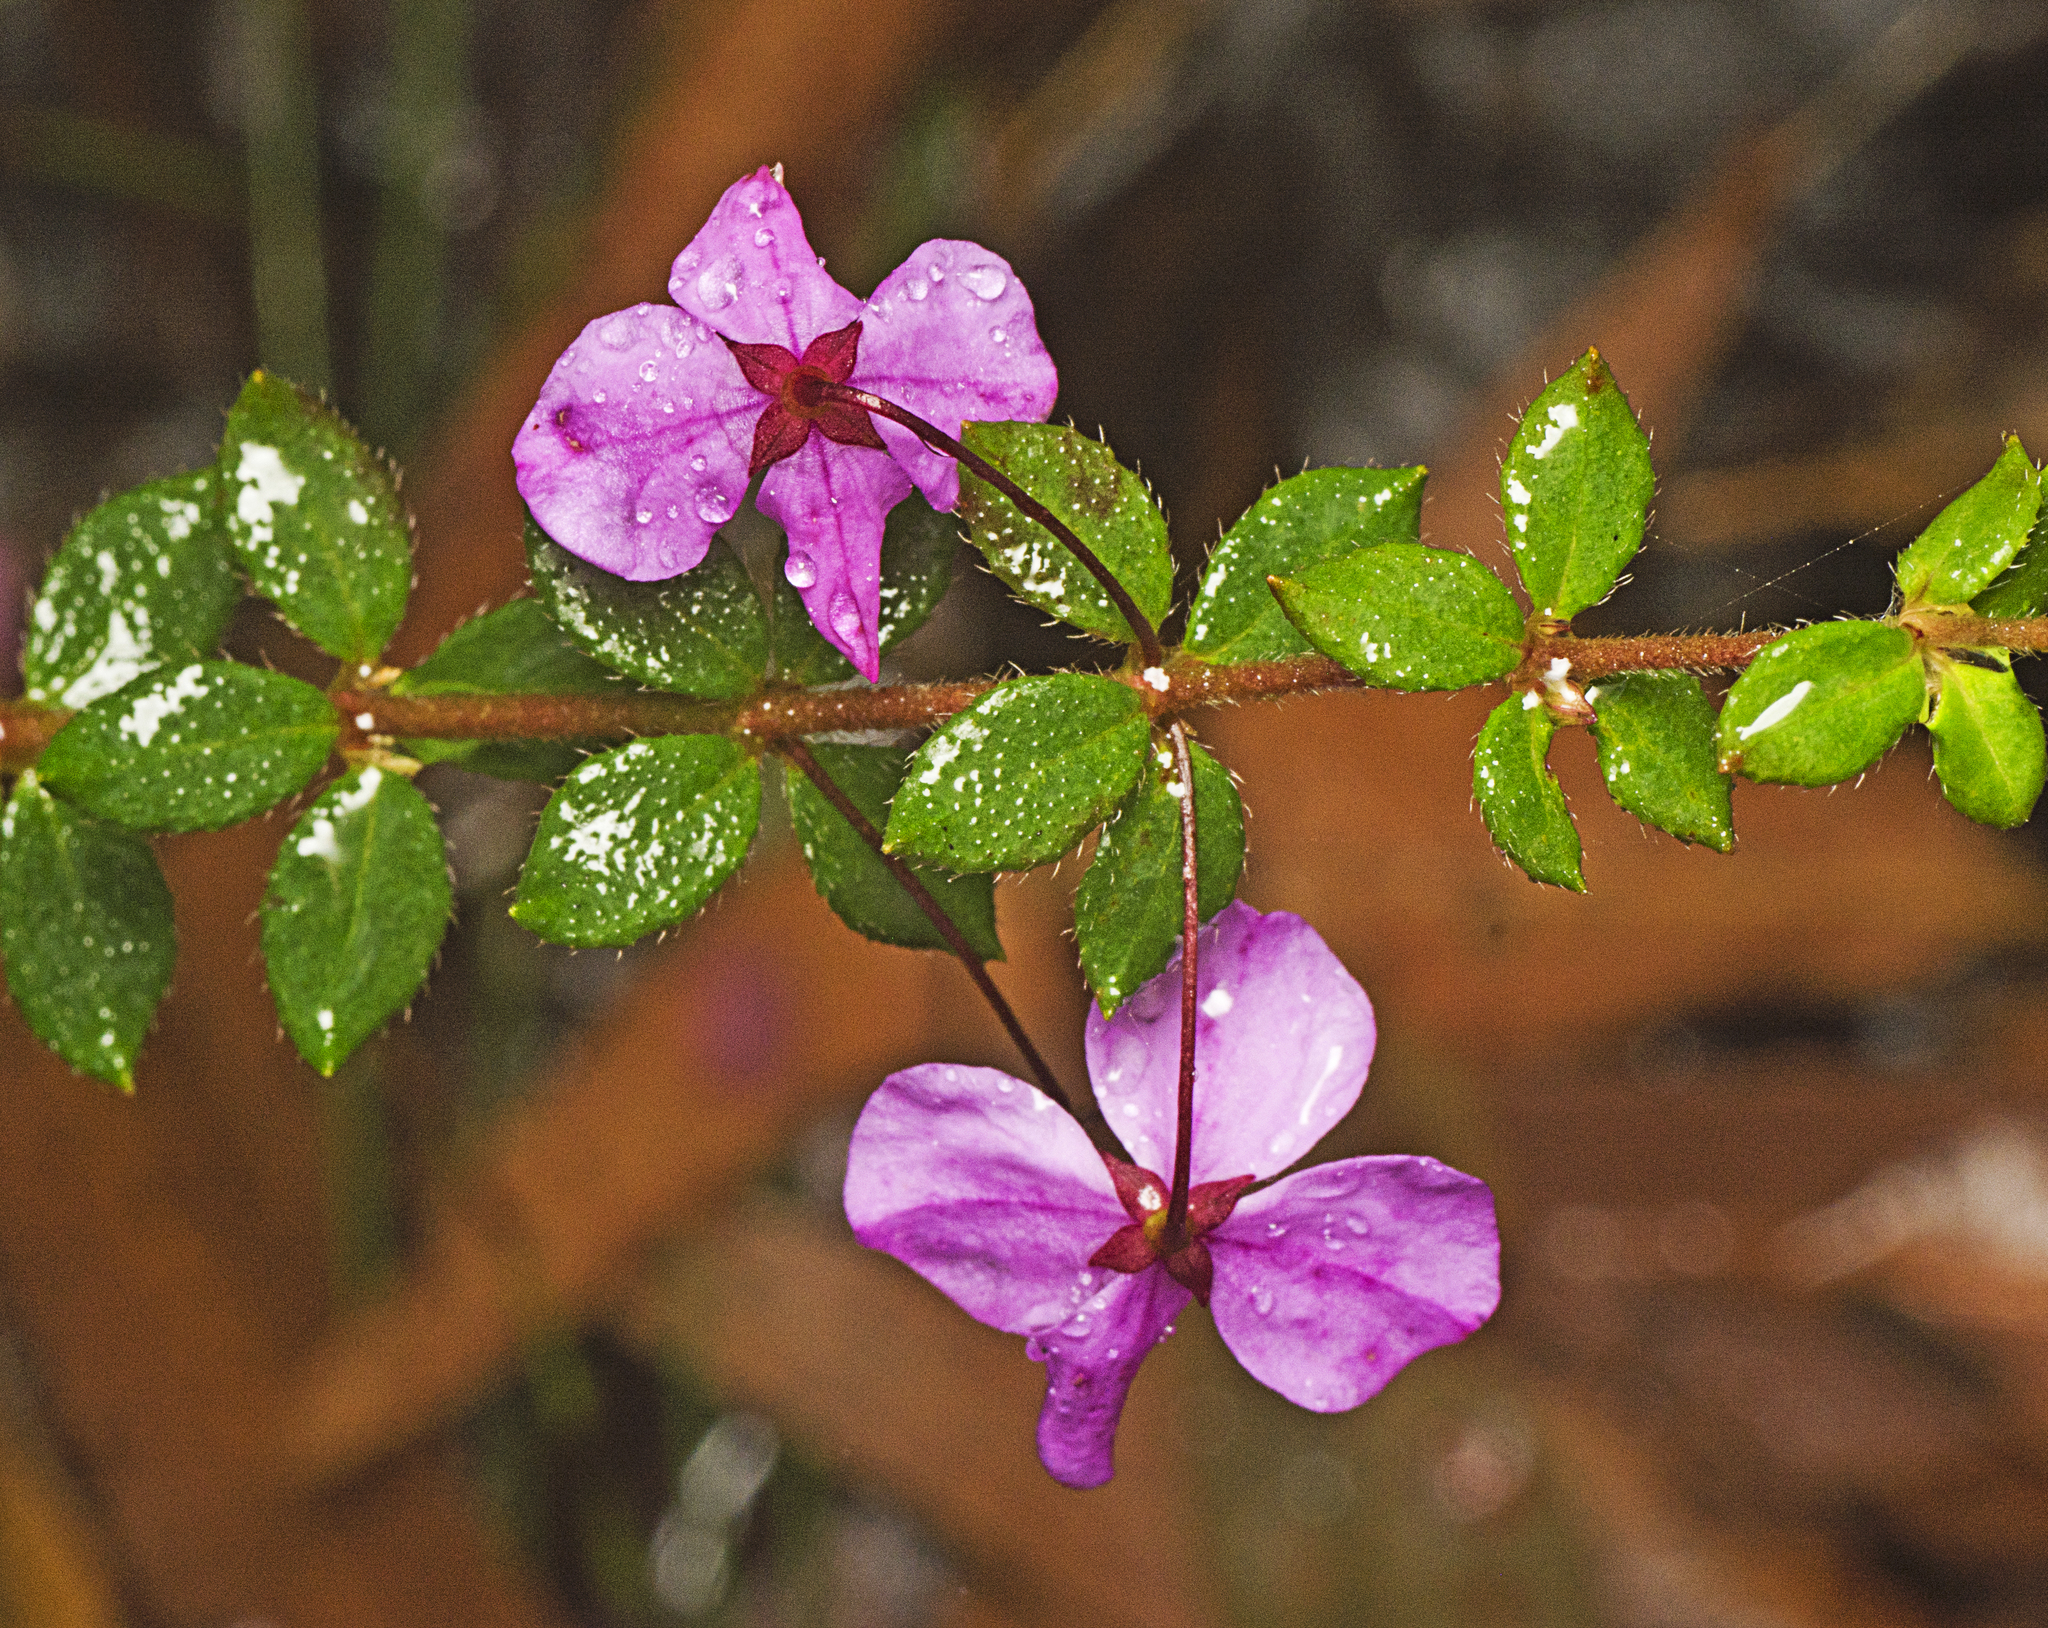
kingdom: Plantae
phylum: Tracheophyta
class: Magnoliopsida
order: Oxalidales
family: Elaeocarpaceae
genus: Tetratheca
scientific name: Tetratheca thymifolia
